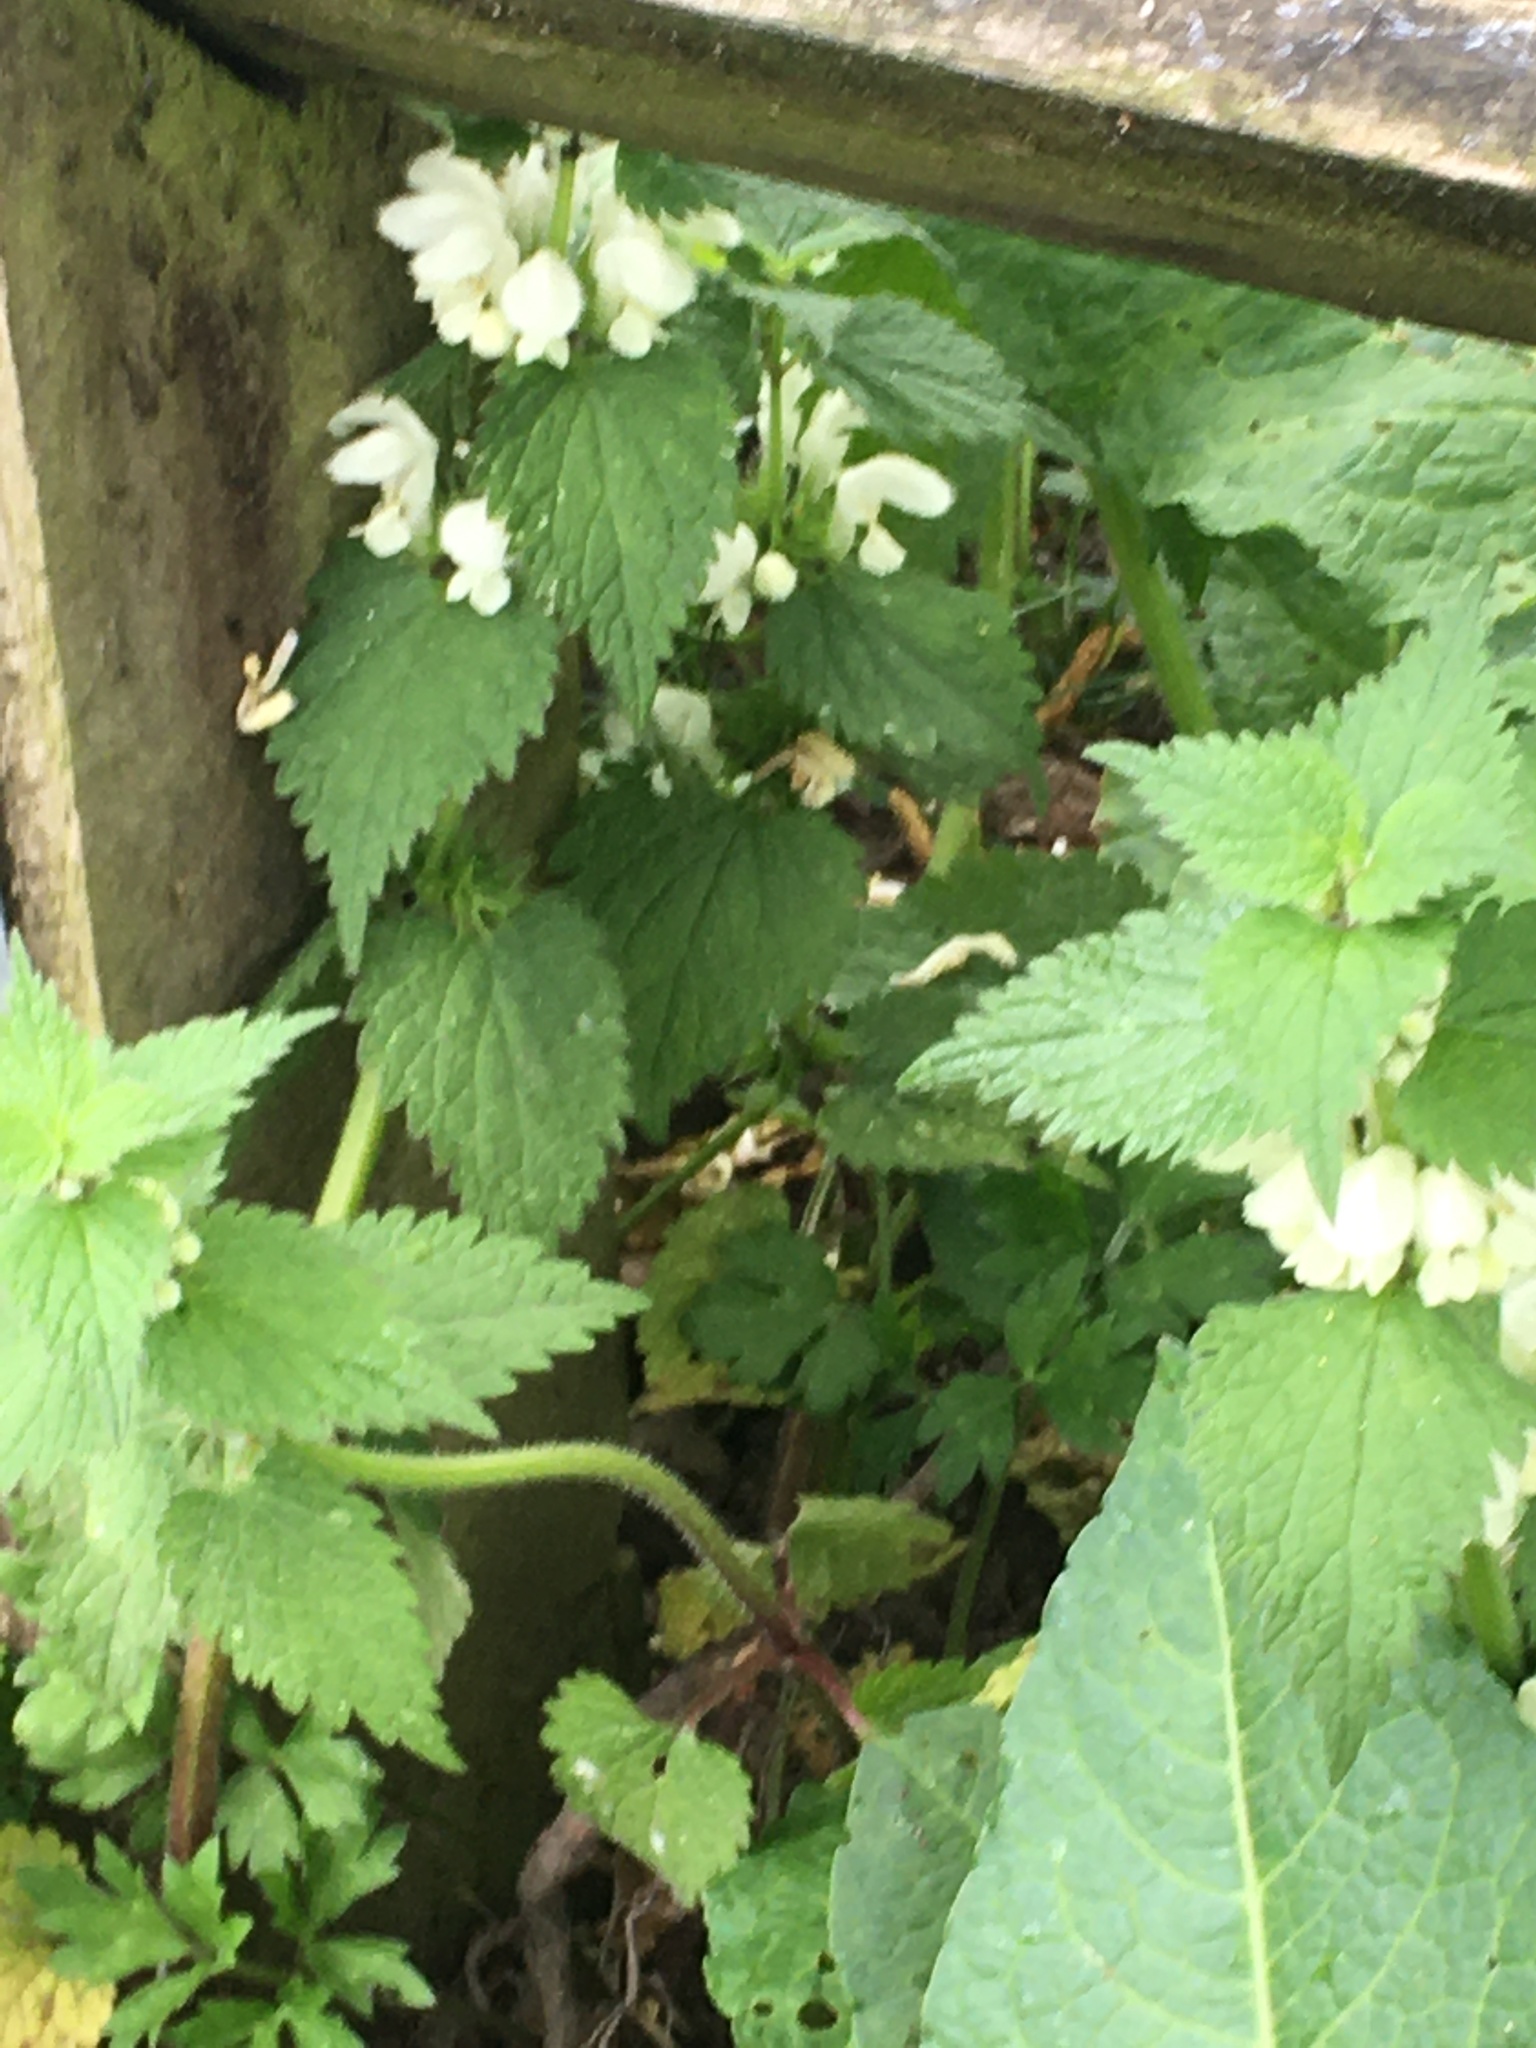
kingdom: Plantae
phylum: Tracheophyta
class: Magnoliopsida
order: Lamiales
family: Lamiaceae
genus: Lamium
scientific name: Lamium album
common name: White dead-nettle
